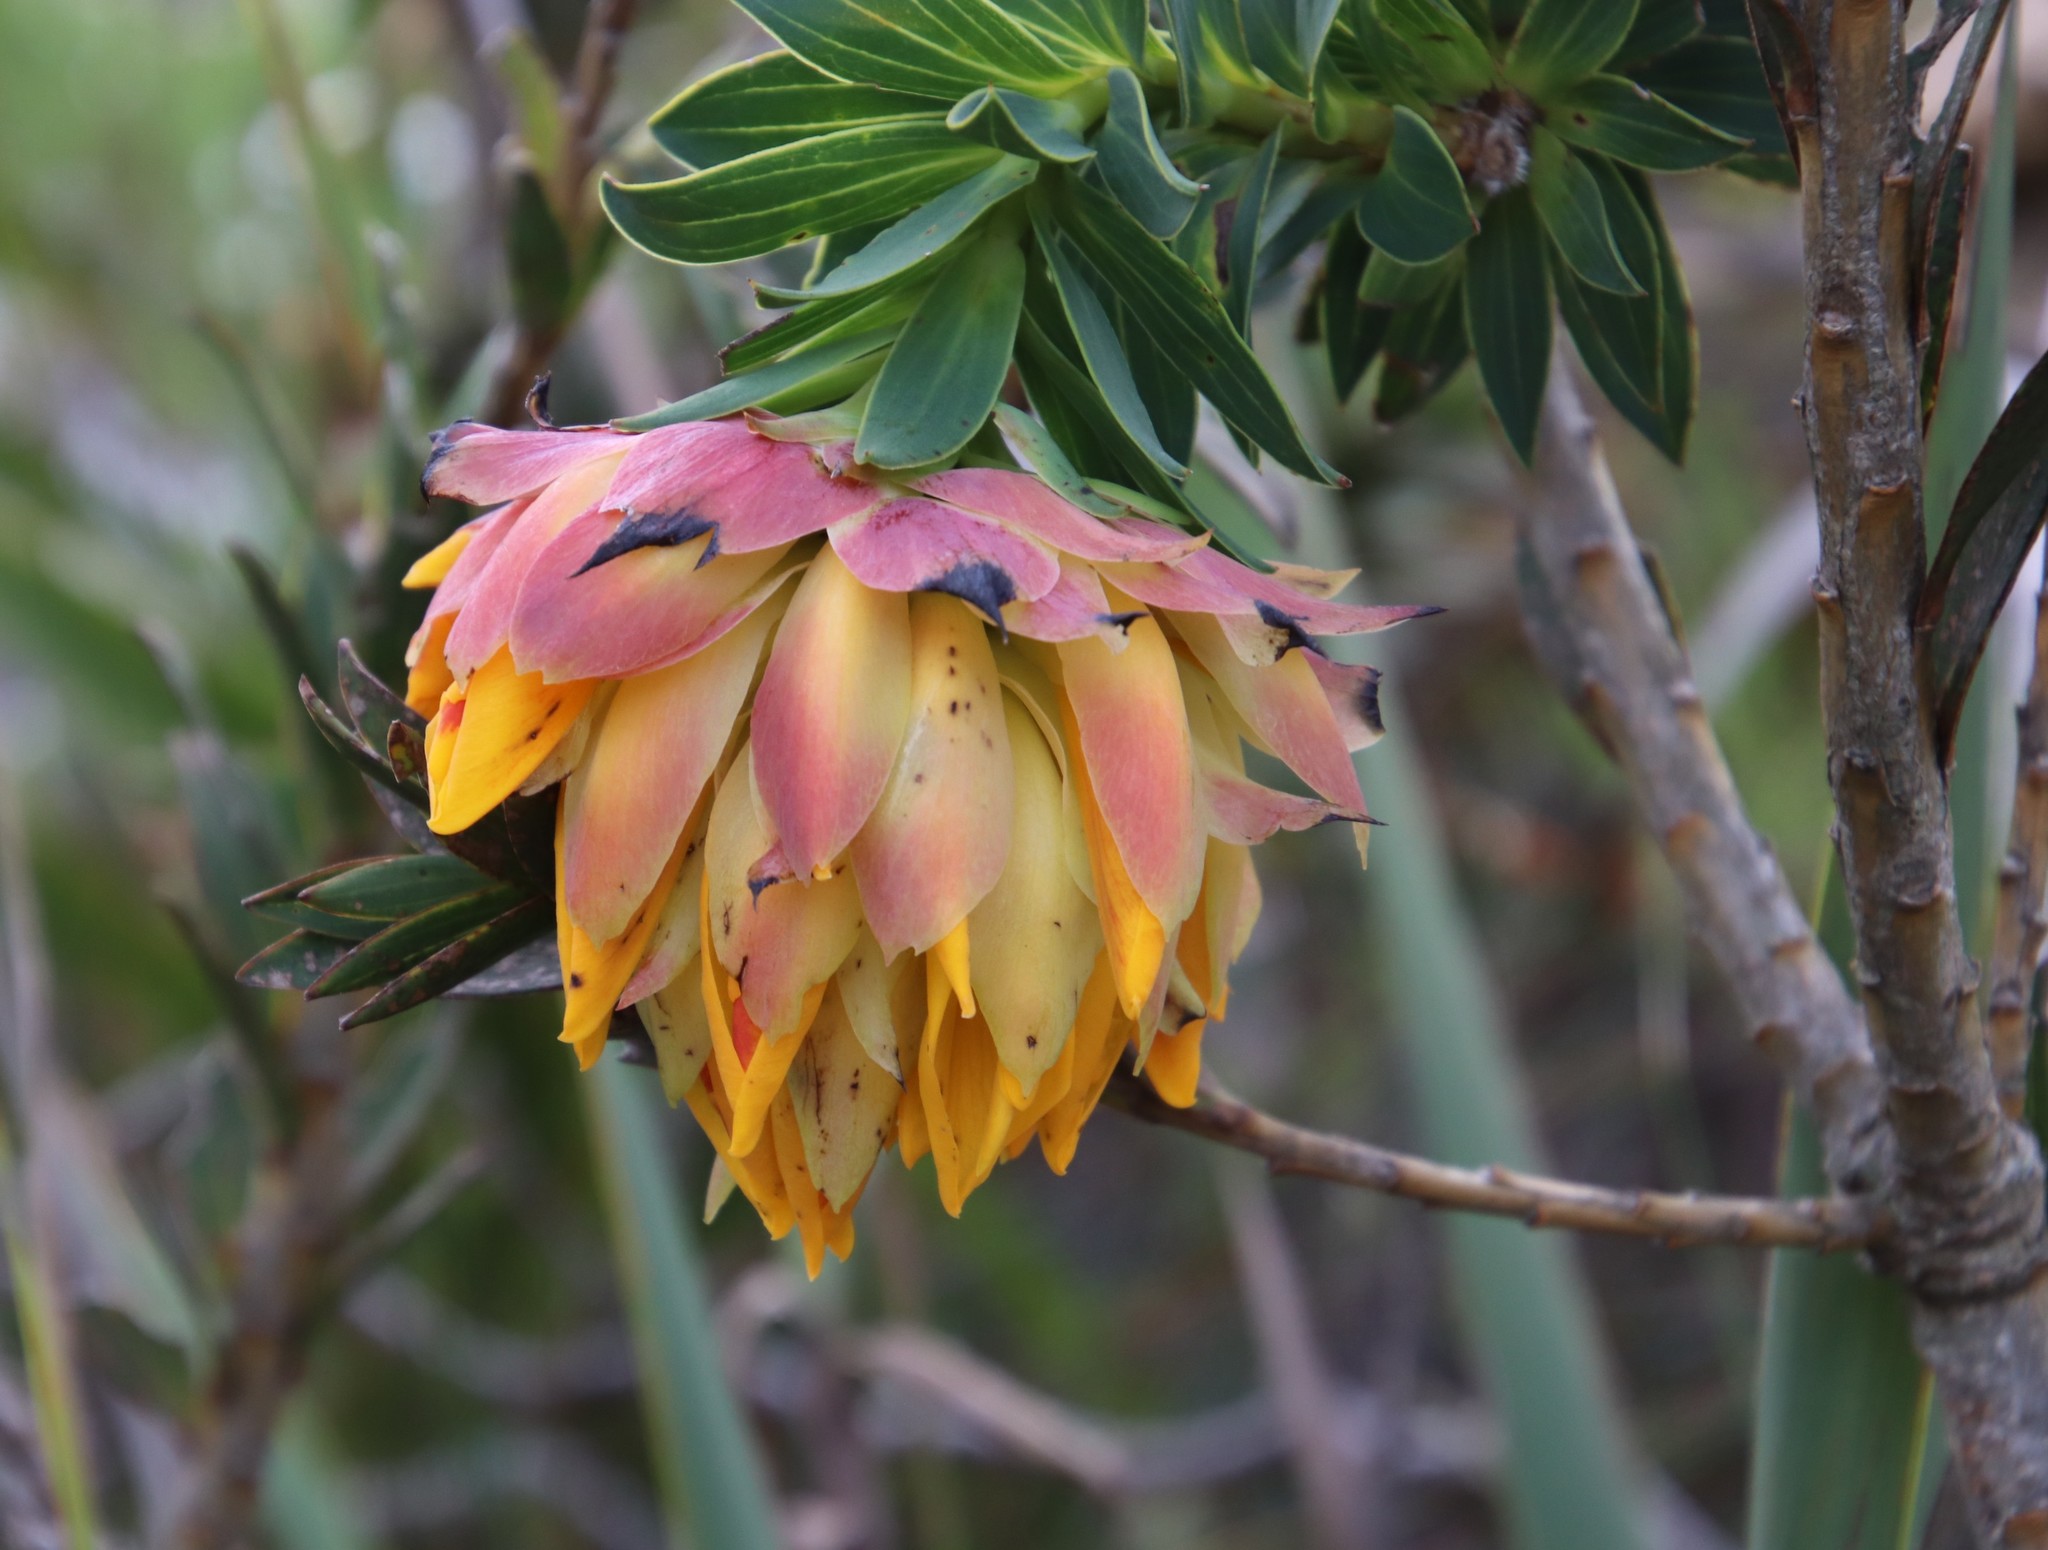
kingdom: Plantae
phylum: Tracheophyta
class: Magnoliopsida
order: Fabales
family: Fabaceae
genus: Liparia
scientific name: Liparia splendens
